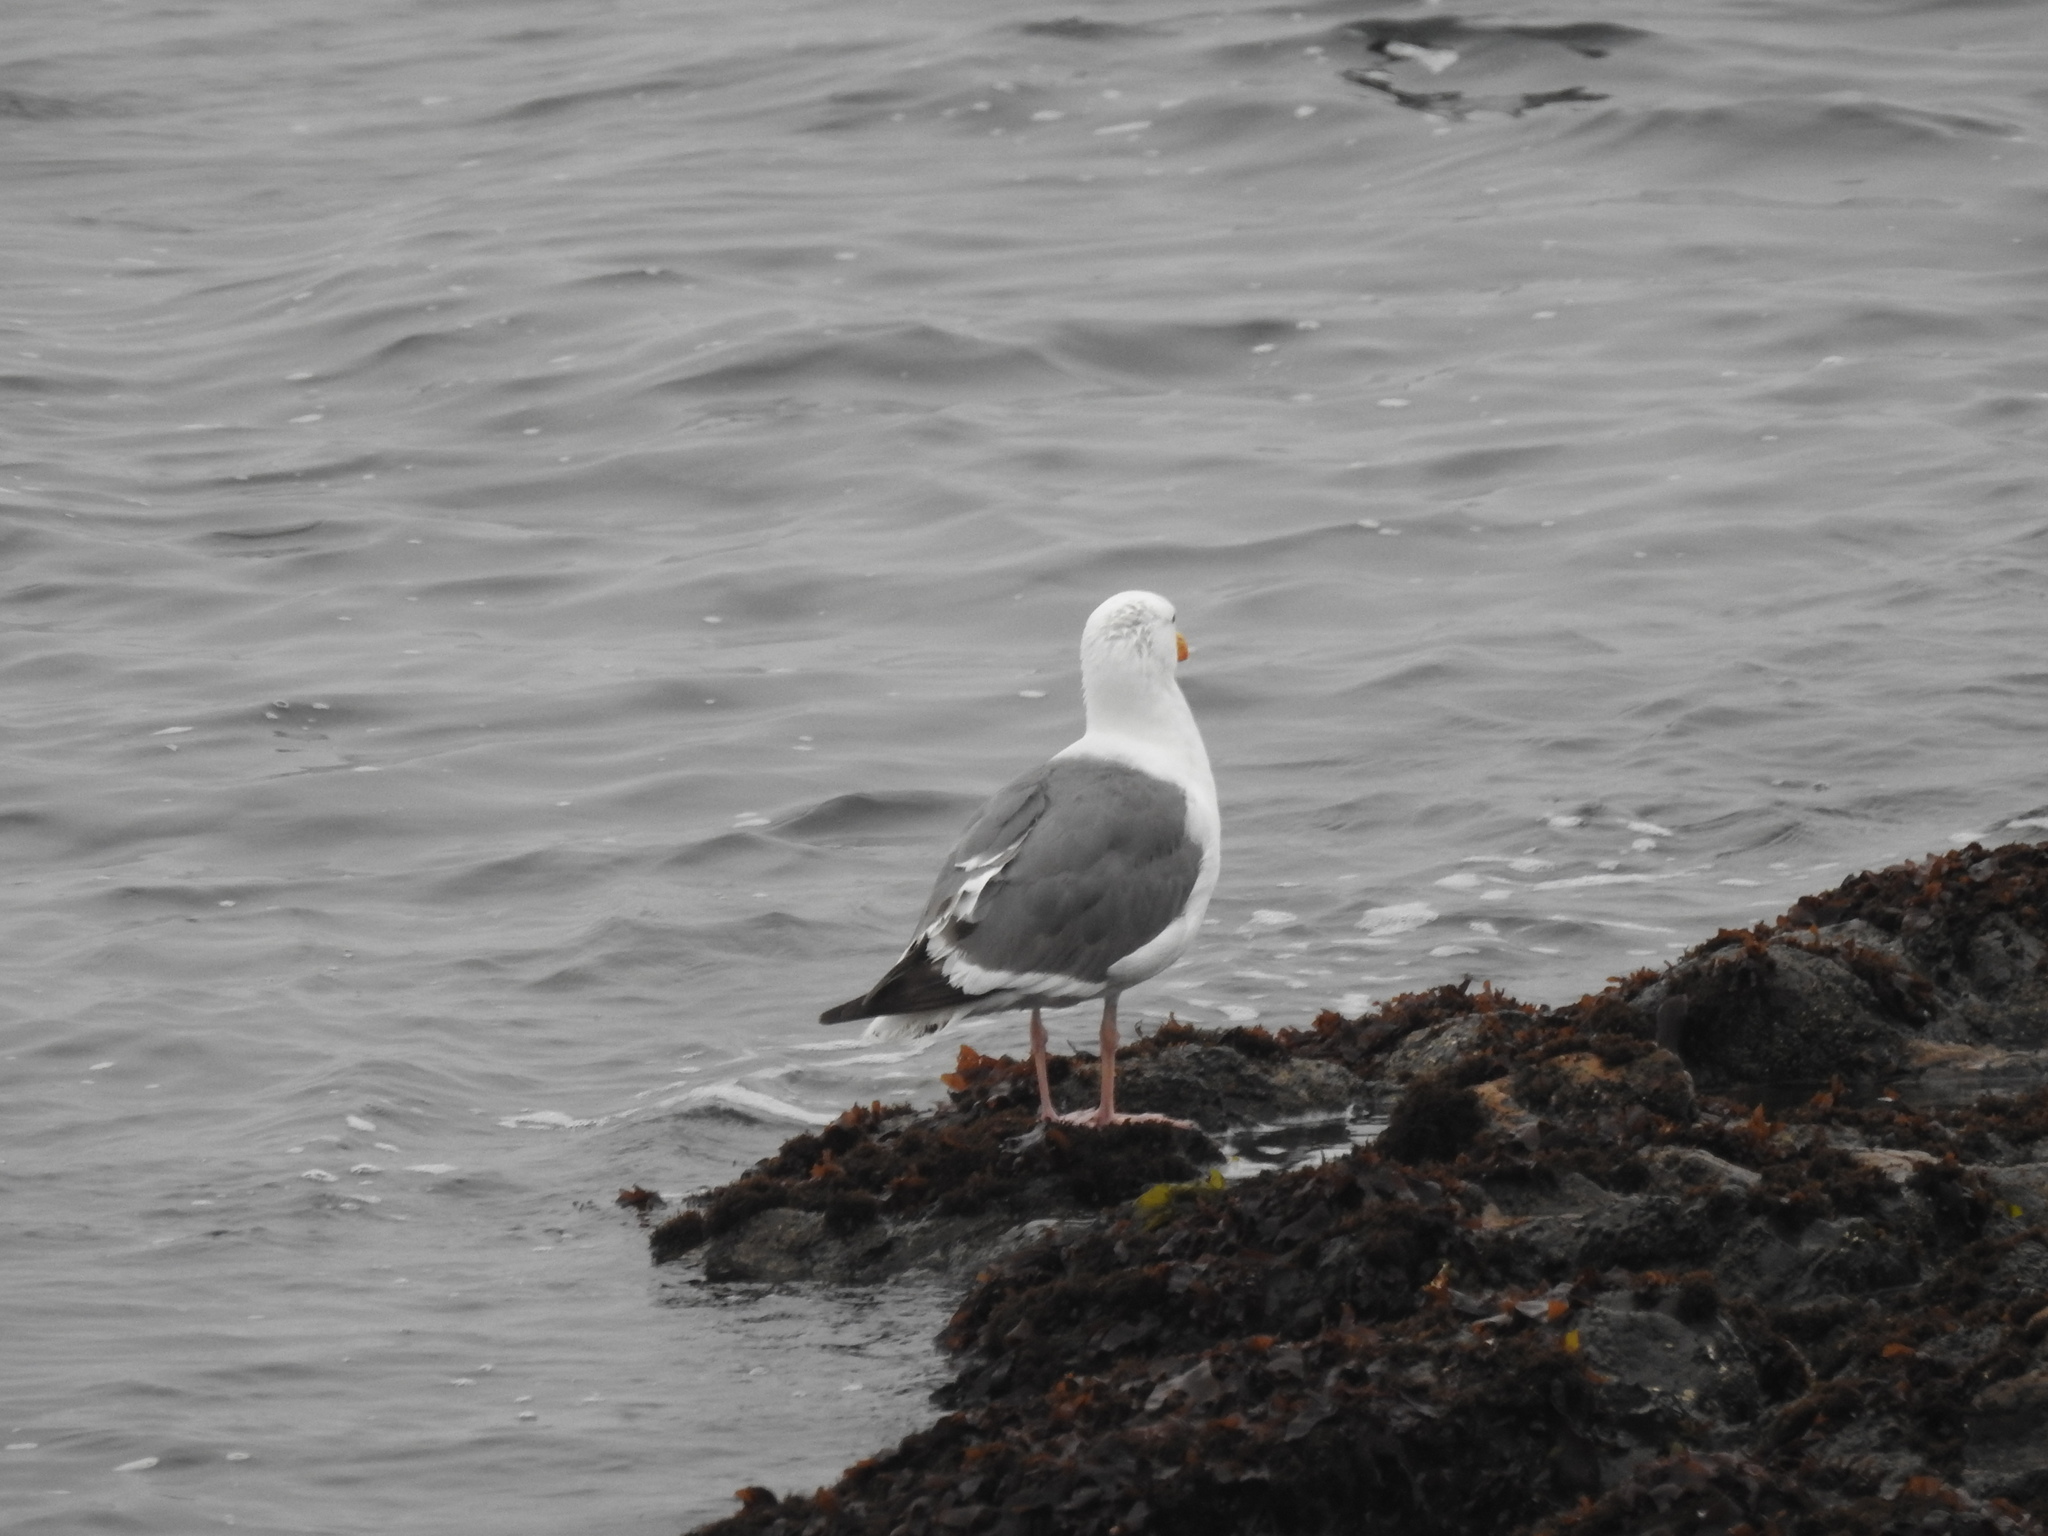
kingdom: Animalia
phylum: Chordata
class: Aves
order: Charadriiformes
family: Laridae
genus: Larus
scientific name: Larus occidentalis
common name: Western gull
